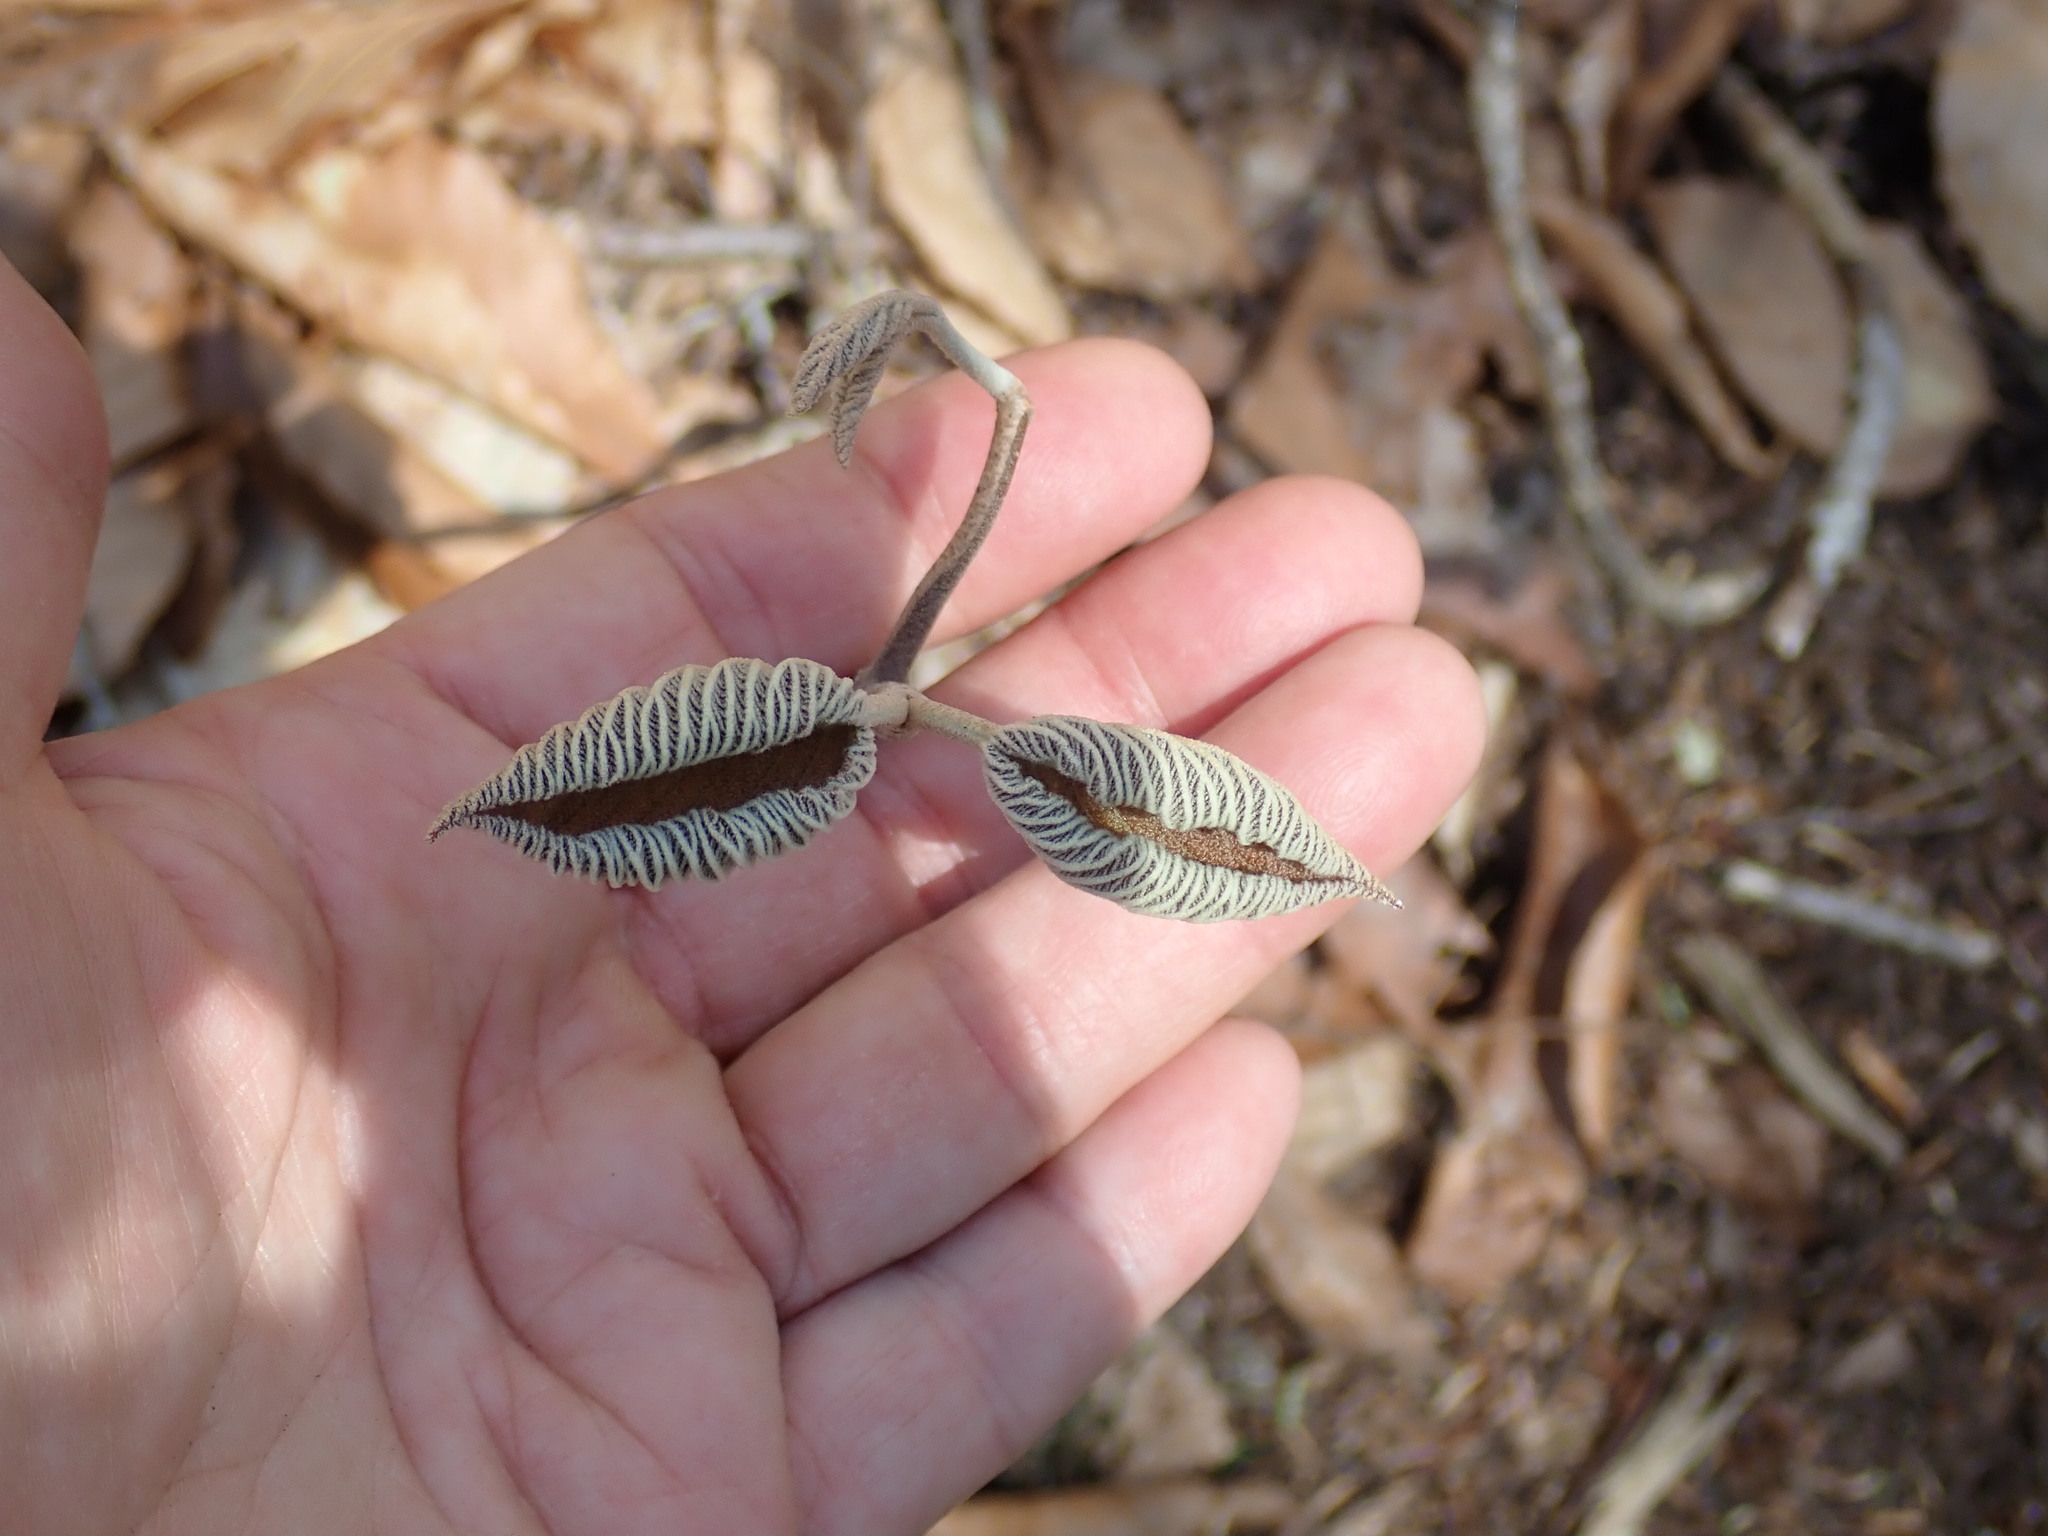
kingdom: Plantae
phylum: Tracheophyta
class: Magnoliopsida
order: Dipsacales
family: Viburnaceae
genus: Viburnum
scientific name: Viburnum lantanoides
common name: Hobblebush
